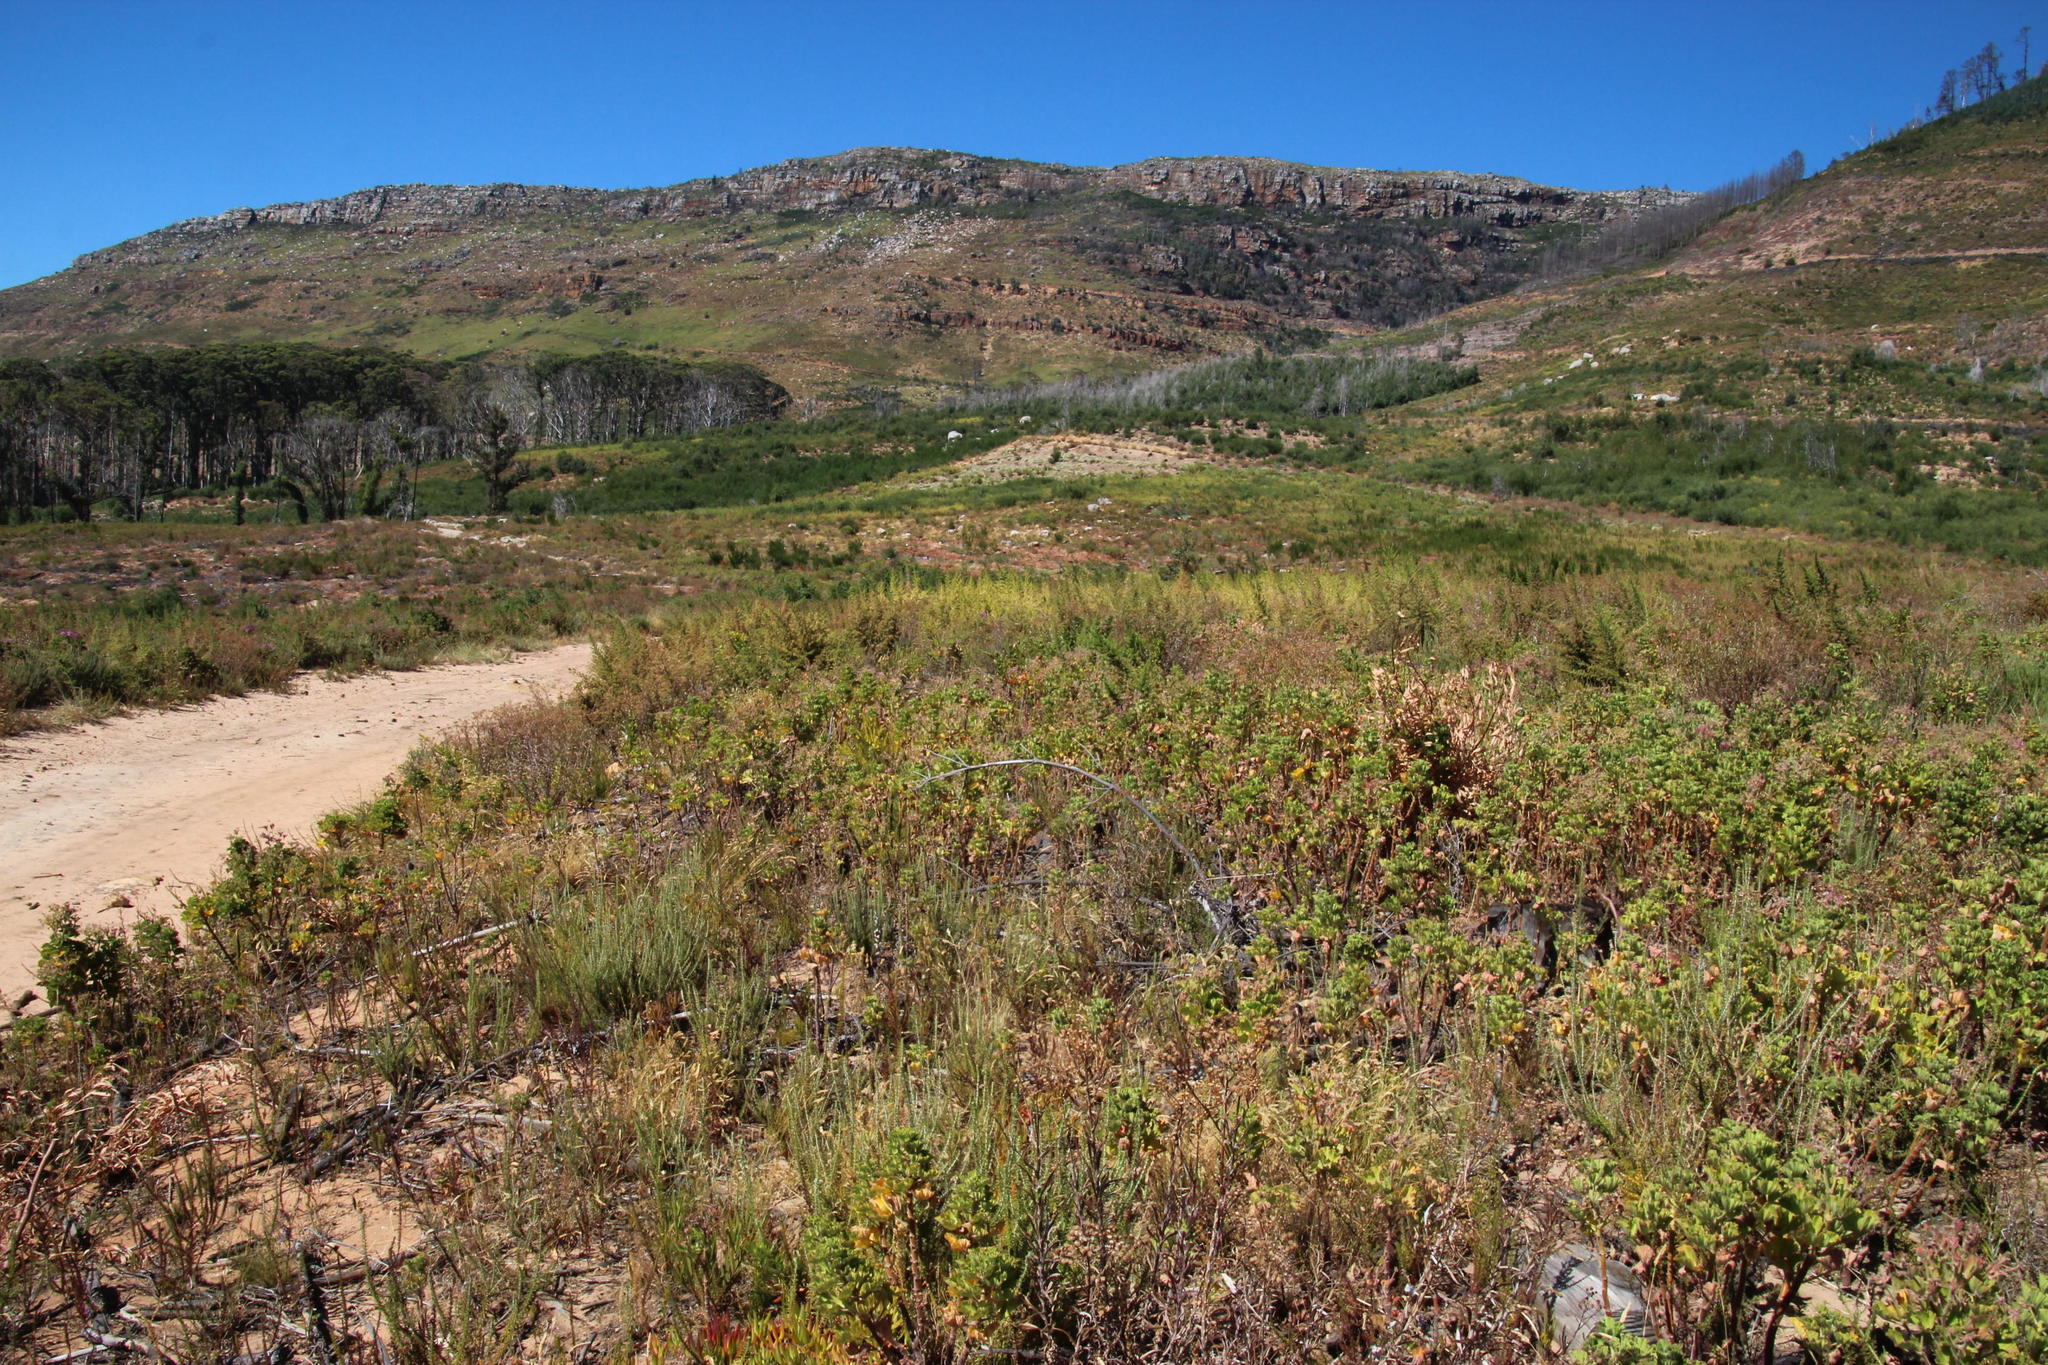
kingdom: Plantae
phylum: Tracheophyta
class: Magnoliopsida
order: Geraniales
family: Geraniaceae
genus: Pelargonium
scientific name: Pelargonium cucullatum
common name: Tree pelargonium
